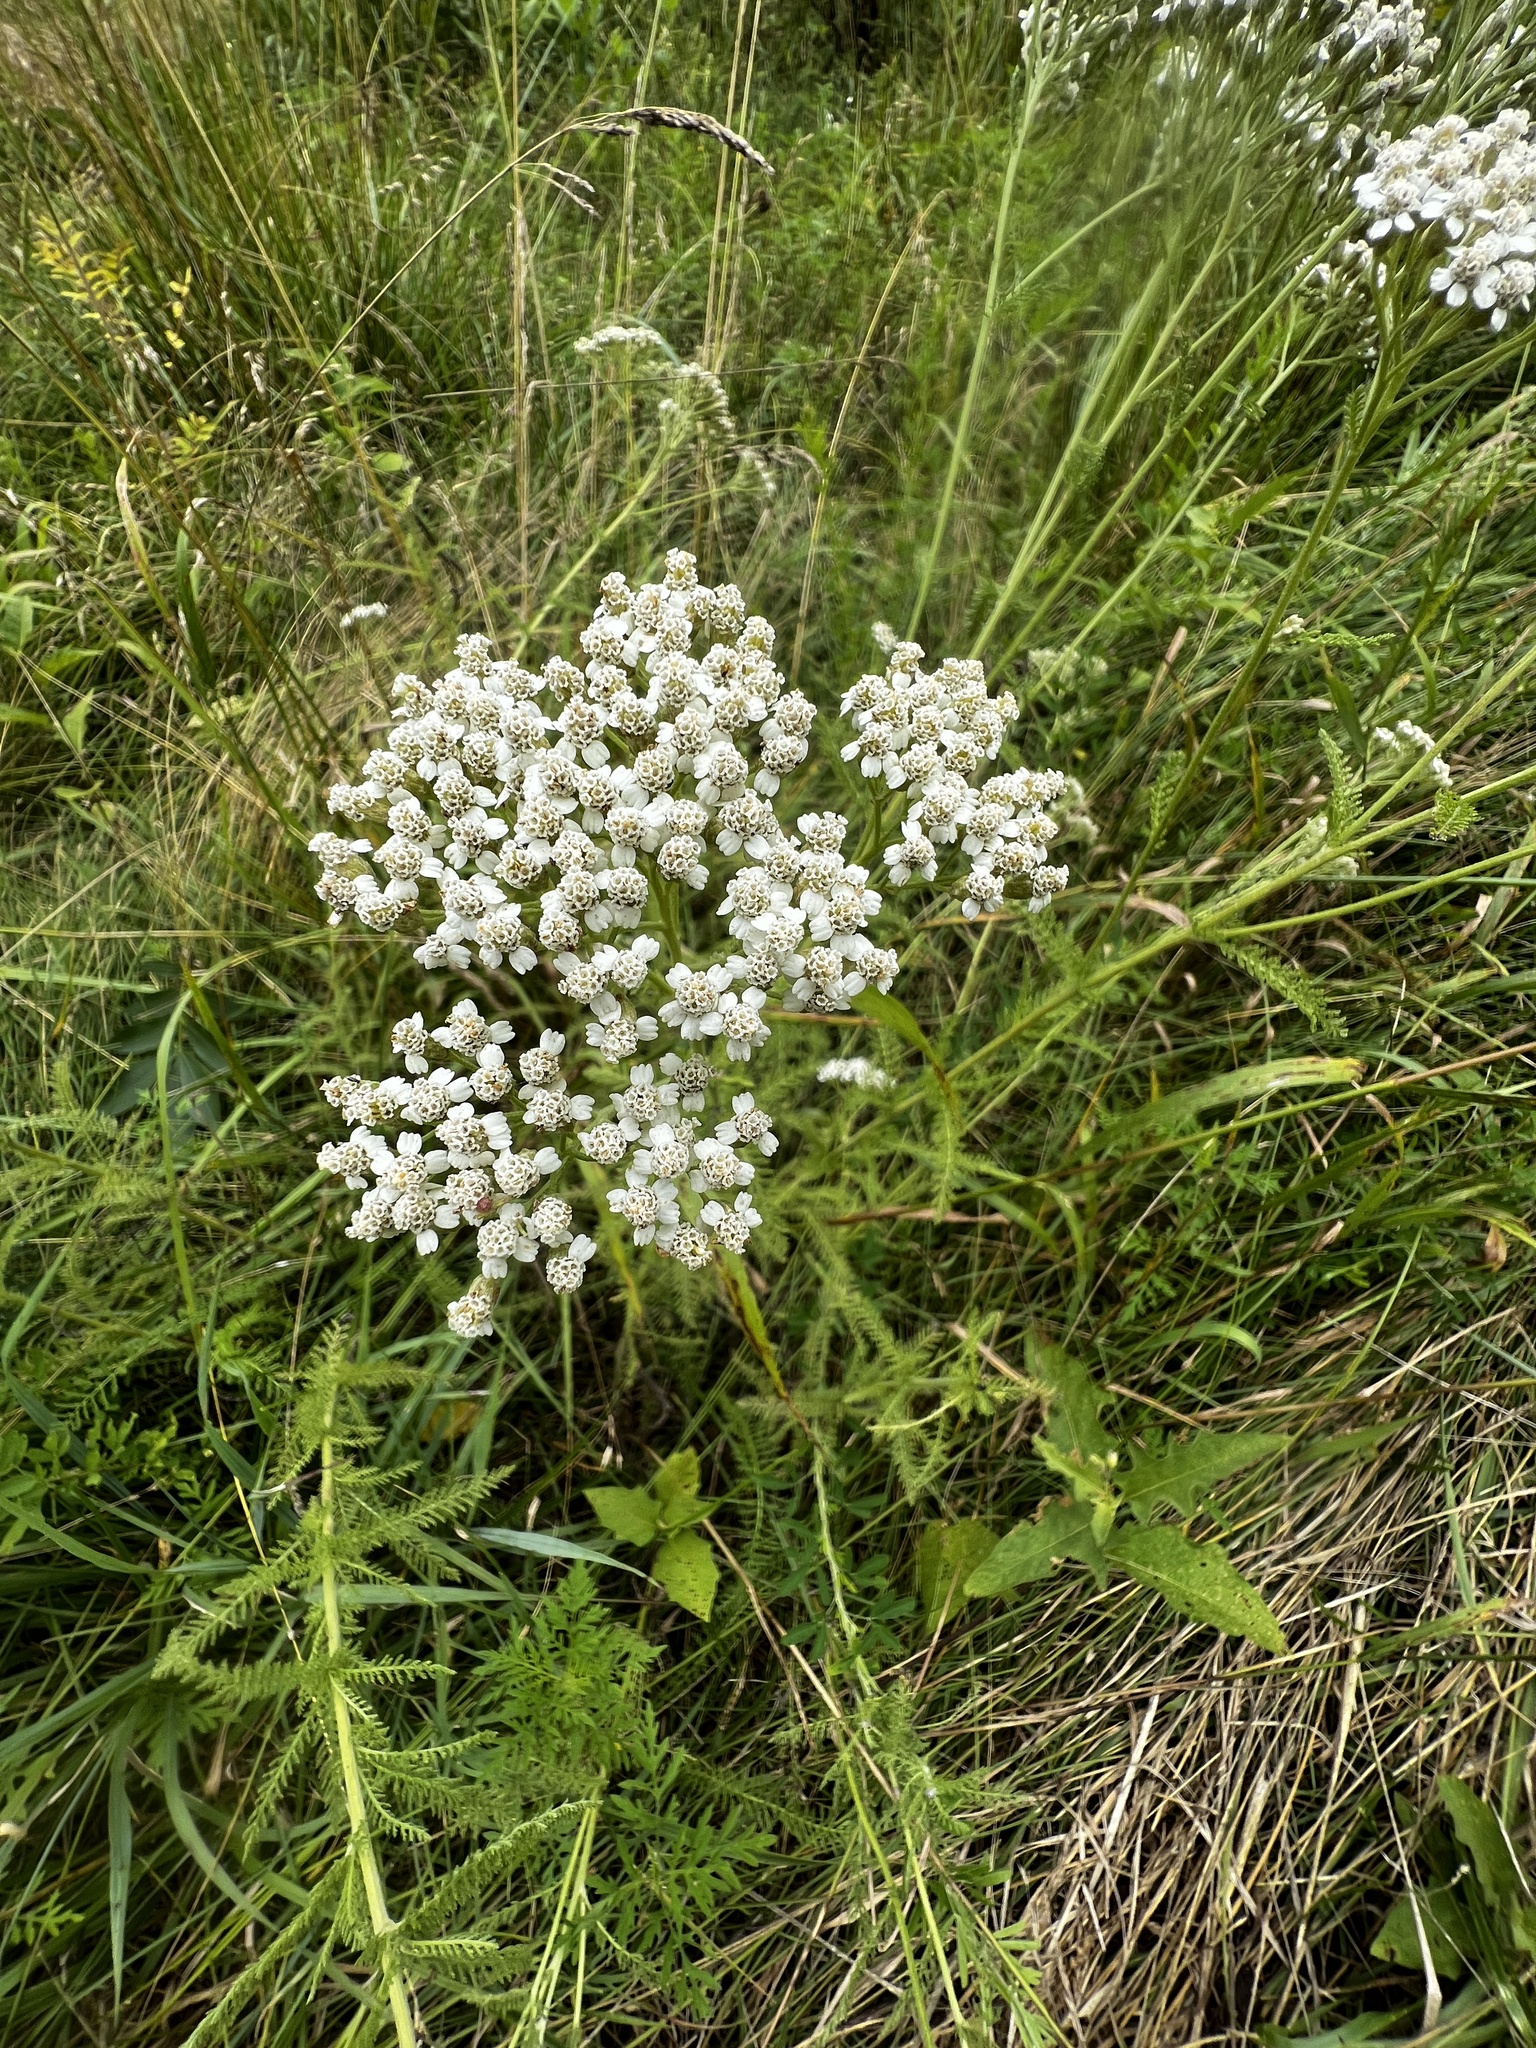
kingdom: Plantae
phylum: Tracheophyta
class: Magnoliopsida
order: Asterales
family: Asteraceae
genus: Achillea
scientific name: Achillea millefolium
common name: Yarrow
